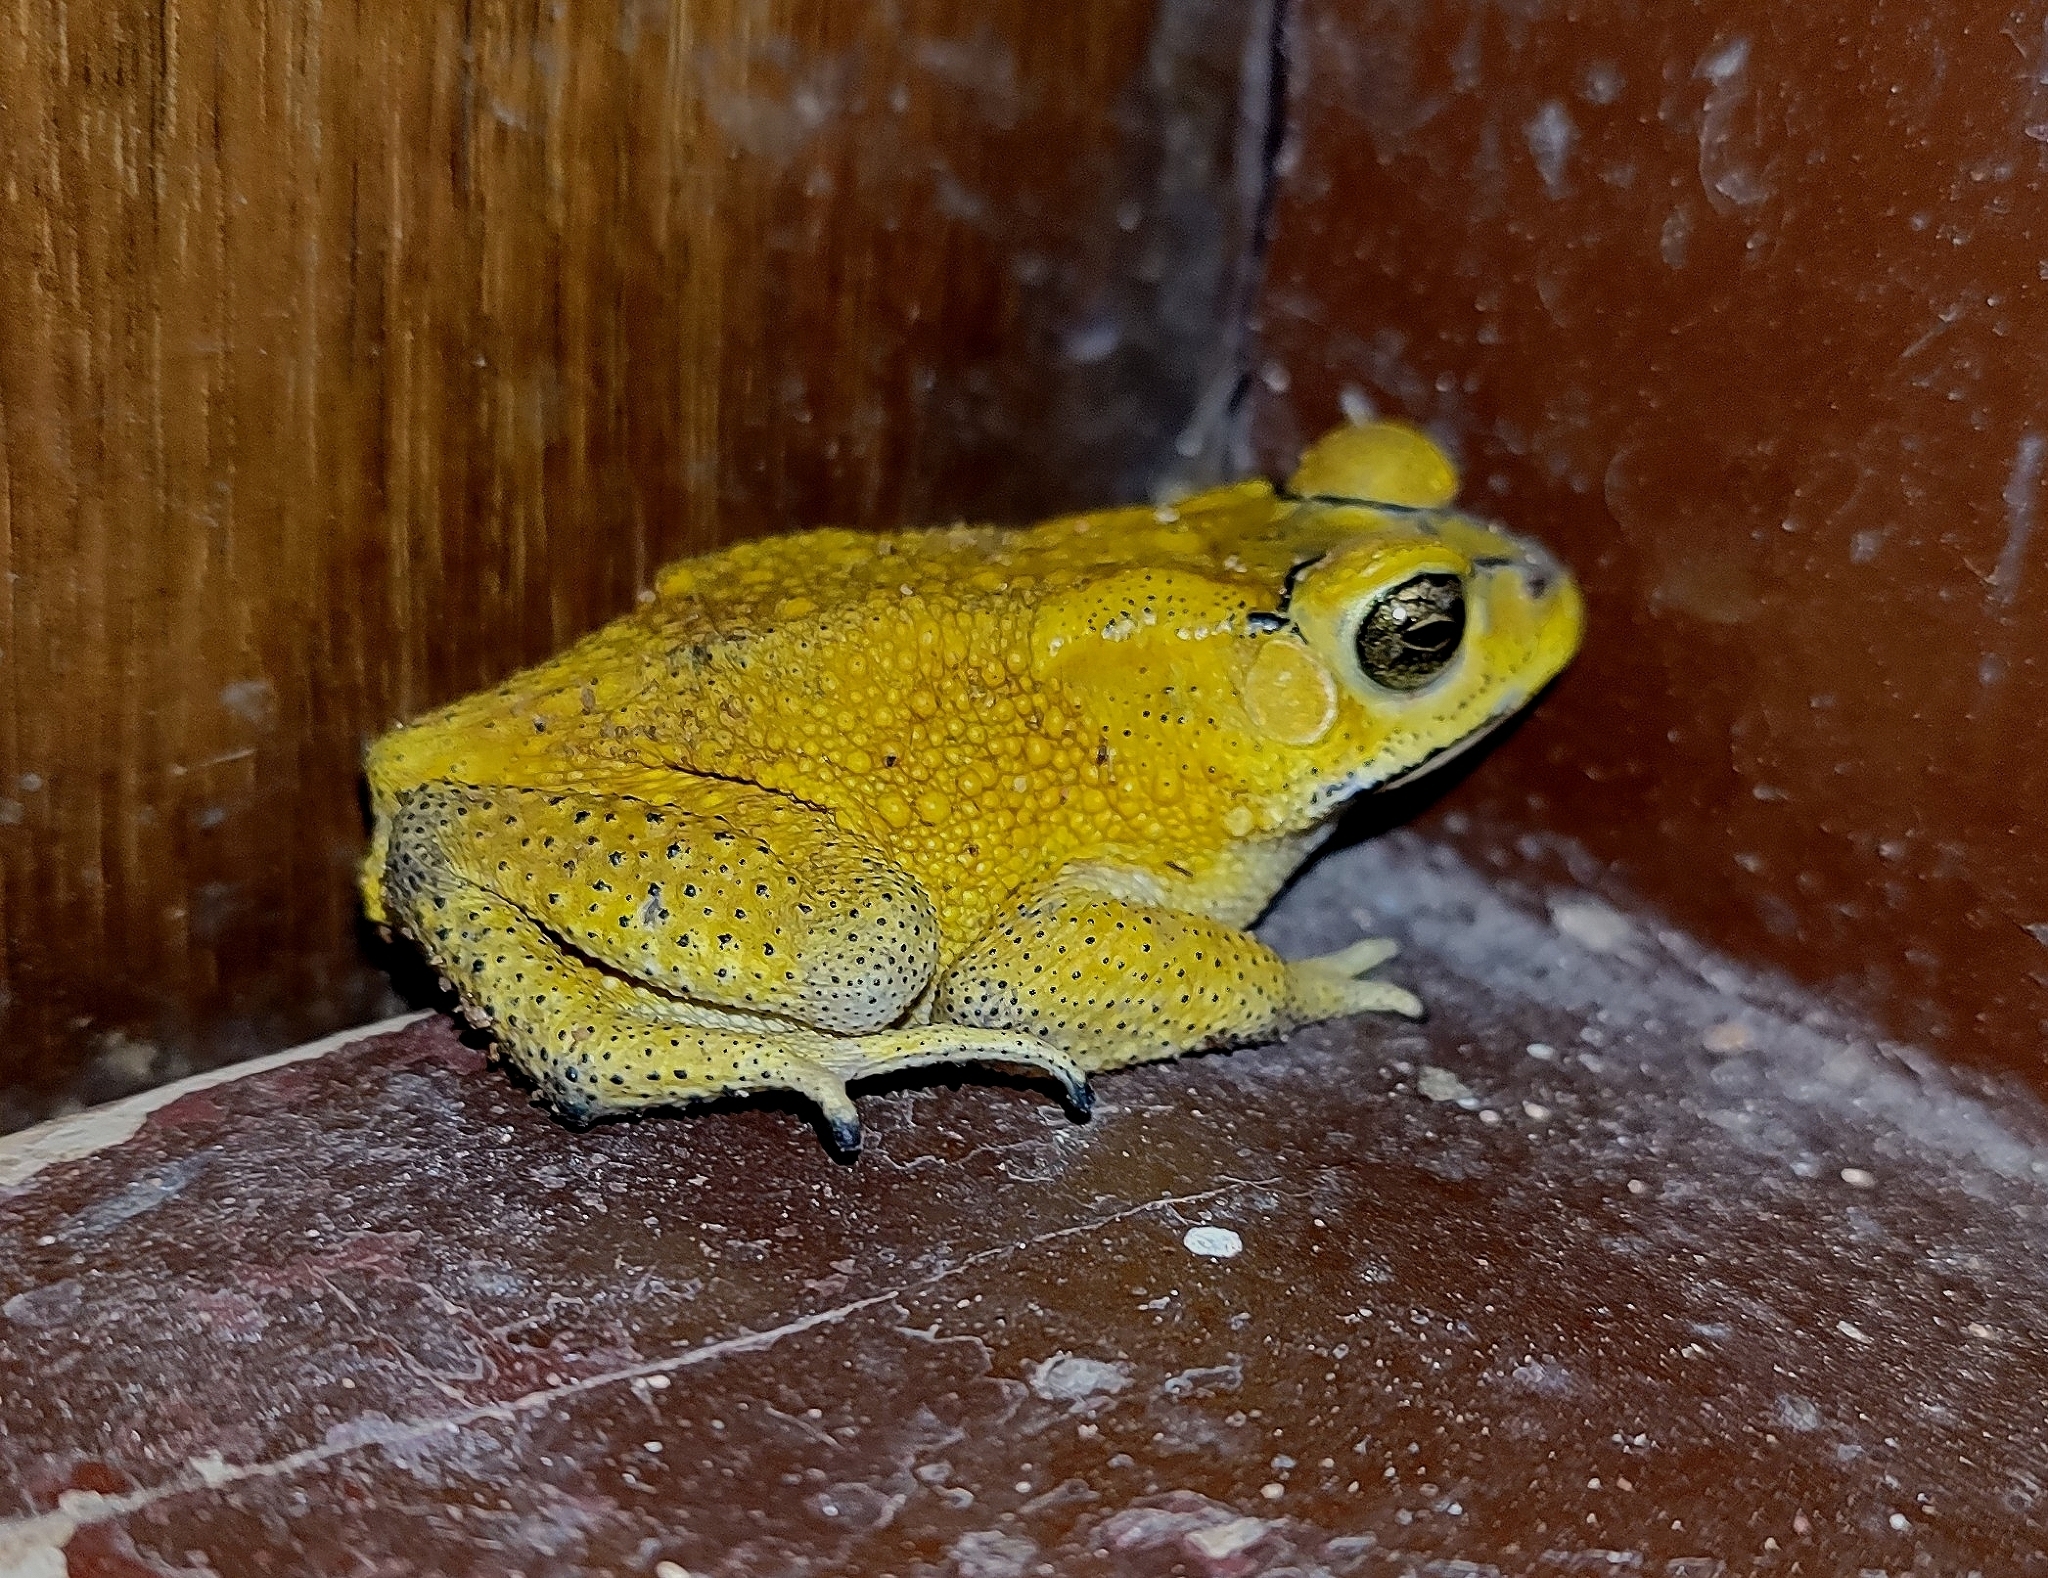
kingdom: Animalia
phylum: Chordata
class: Amphibia
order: Anura
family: Bufonidae
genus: Duttaphrynus
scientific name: Duttaphrynus melanostictus
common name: Common sunda toad
